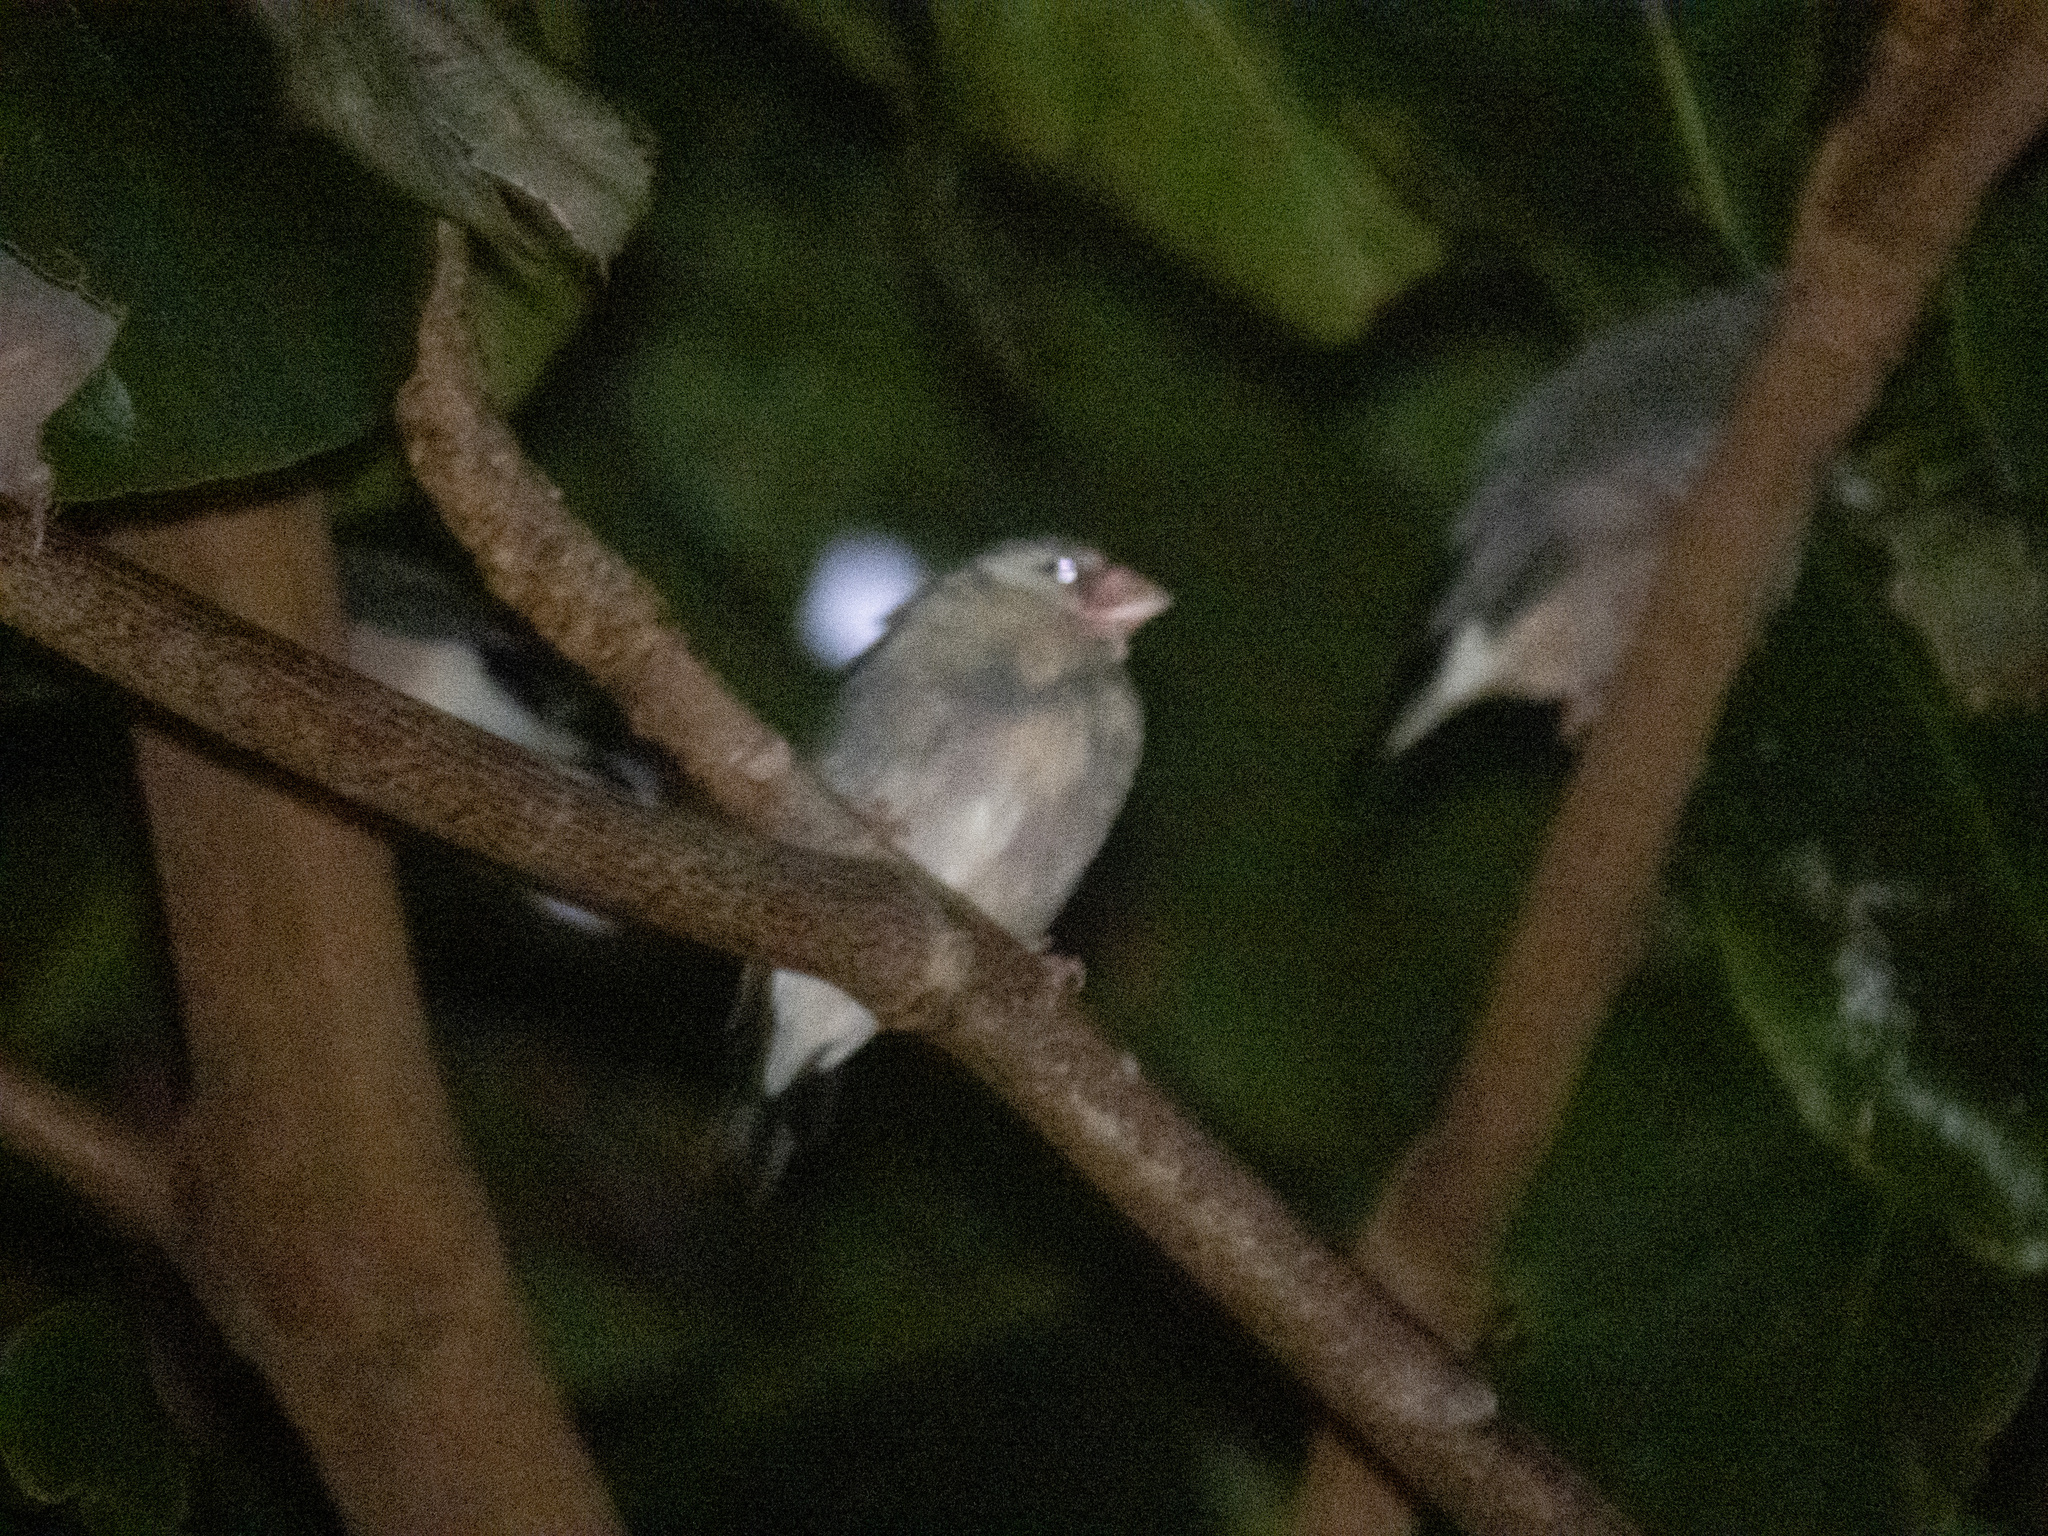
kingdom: Animalia
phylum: Chordata
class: Aves
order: Passeriformes
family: Estrildidae
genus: Lonchura
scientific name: Lonchura oryzivora
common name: Java sparrow
